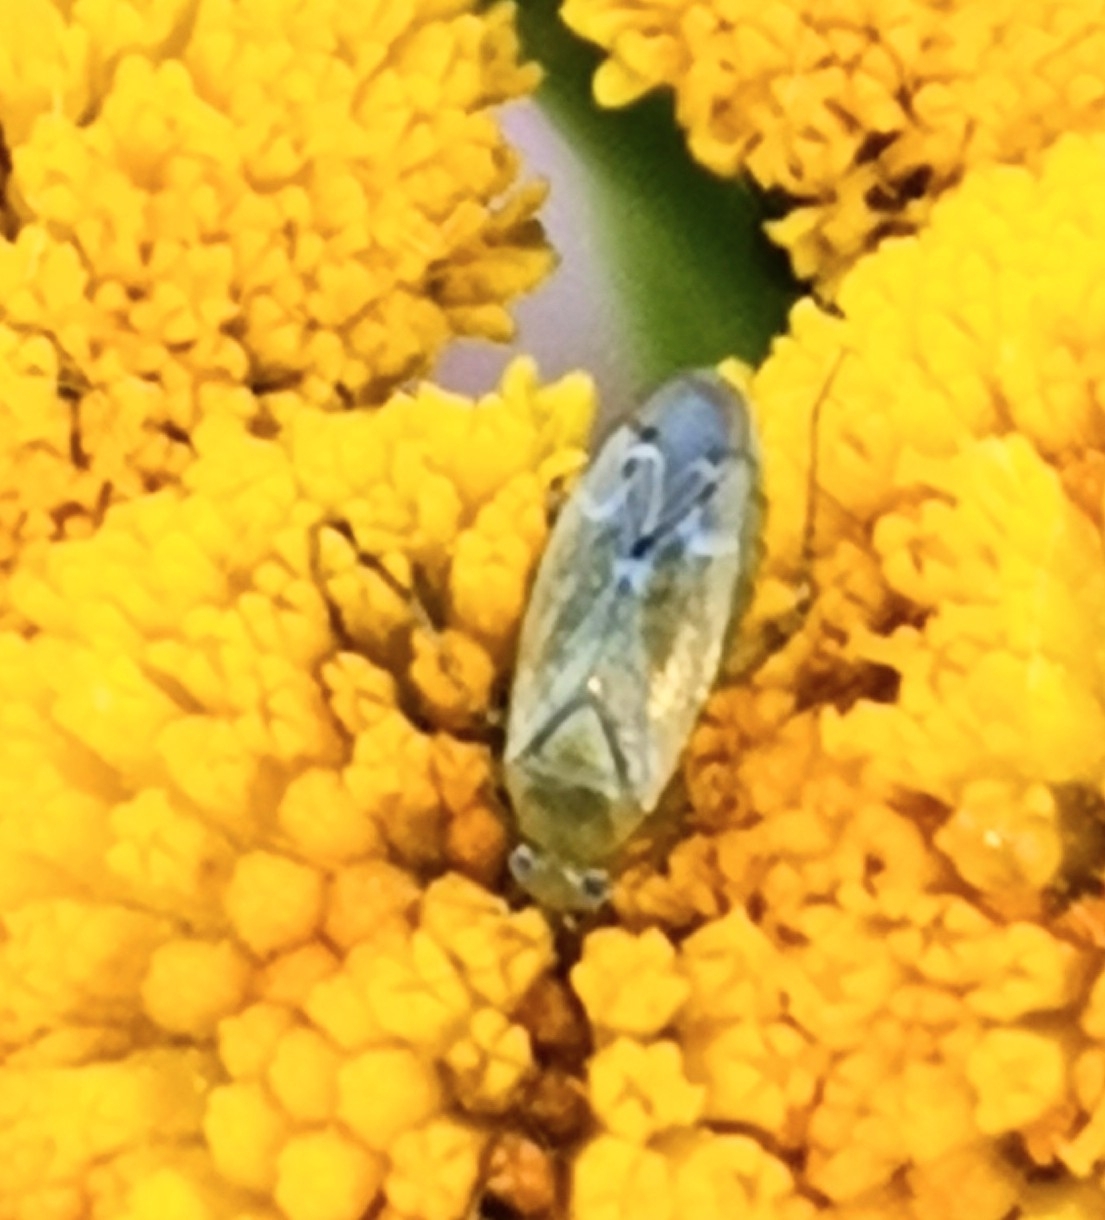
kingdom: Animalia
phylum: Arthropoda
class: Insecta
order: Hemiptera
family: Miridae
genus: Plagiognathus
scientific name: Plagiognathus chrysanthemi
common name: Plant bug
